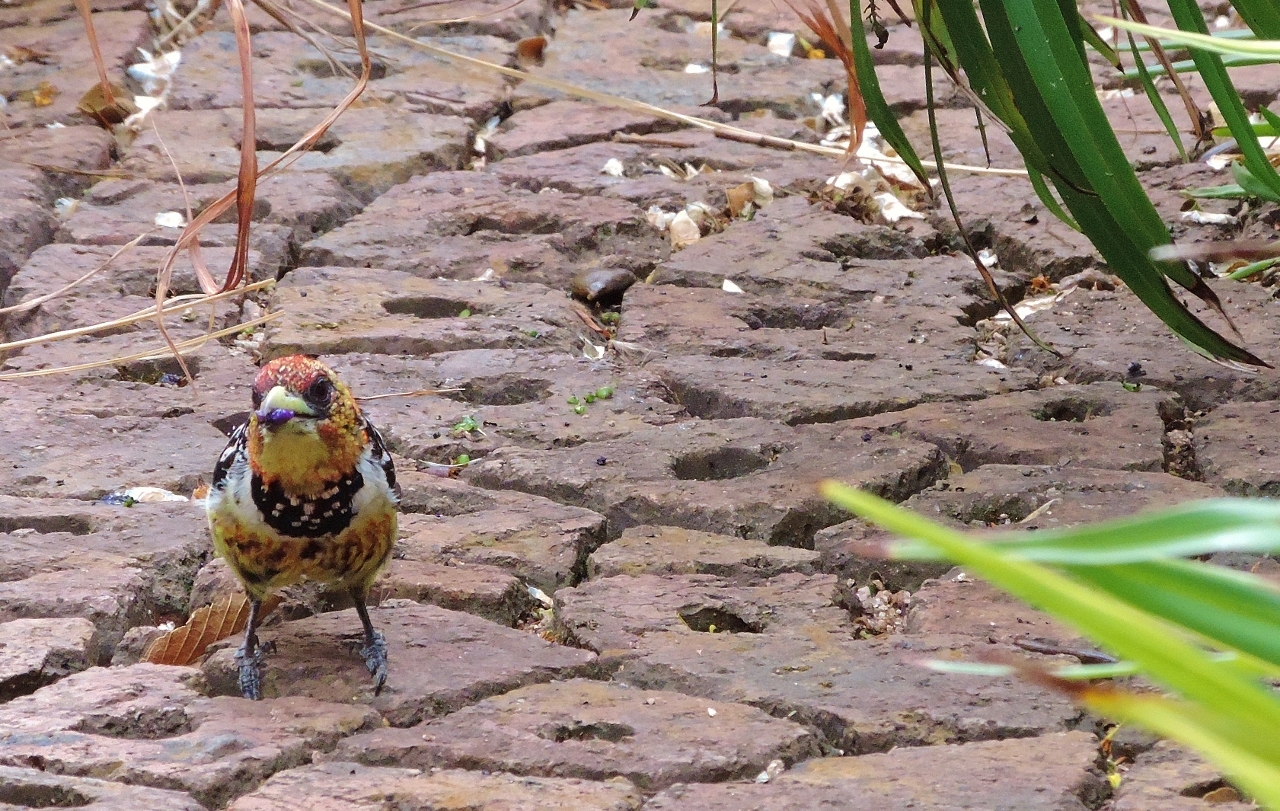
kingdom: Animalia
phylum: Chordata
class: Aves
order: Piciformes
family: Lybiidae
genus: Trachyphonus
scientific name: Trachyphonus vaillantii
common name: Crested barbet
